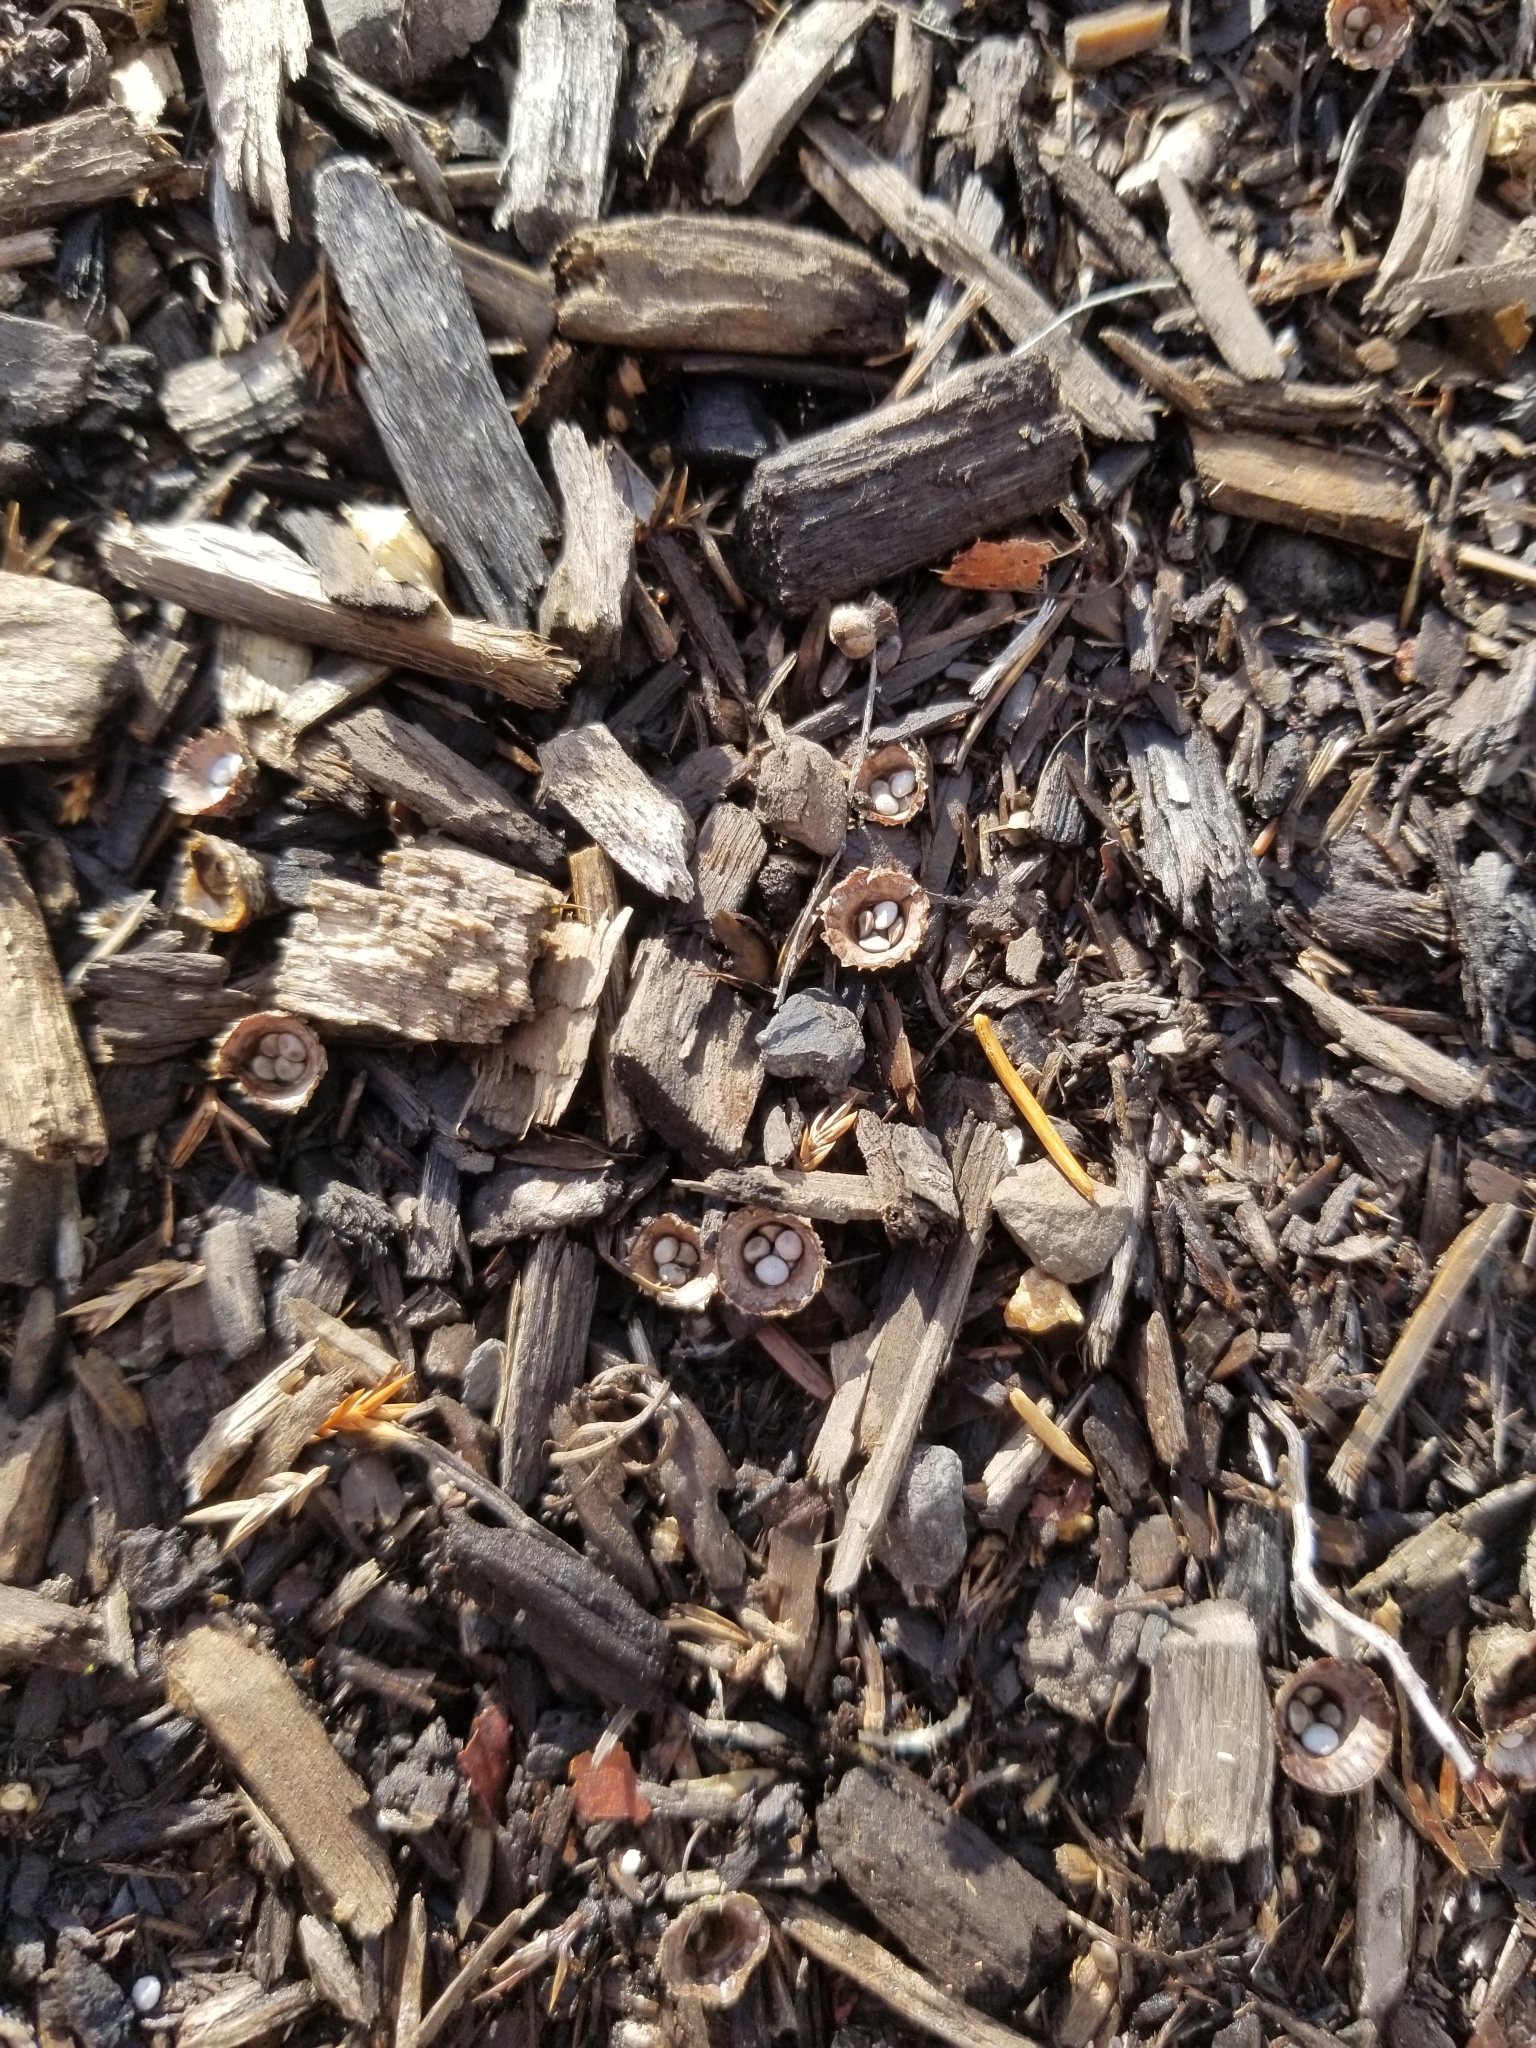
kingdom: Fungi
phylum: Basidiomycota
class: Agaricomycetes
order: Agaricales
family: Agaricaceae
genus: Cyathus
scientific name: Cyathus striatus
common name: Fluted bird's nest
